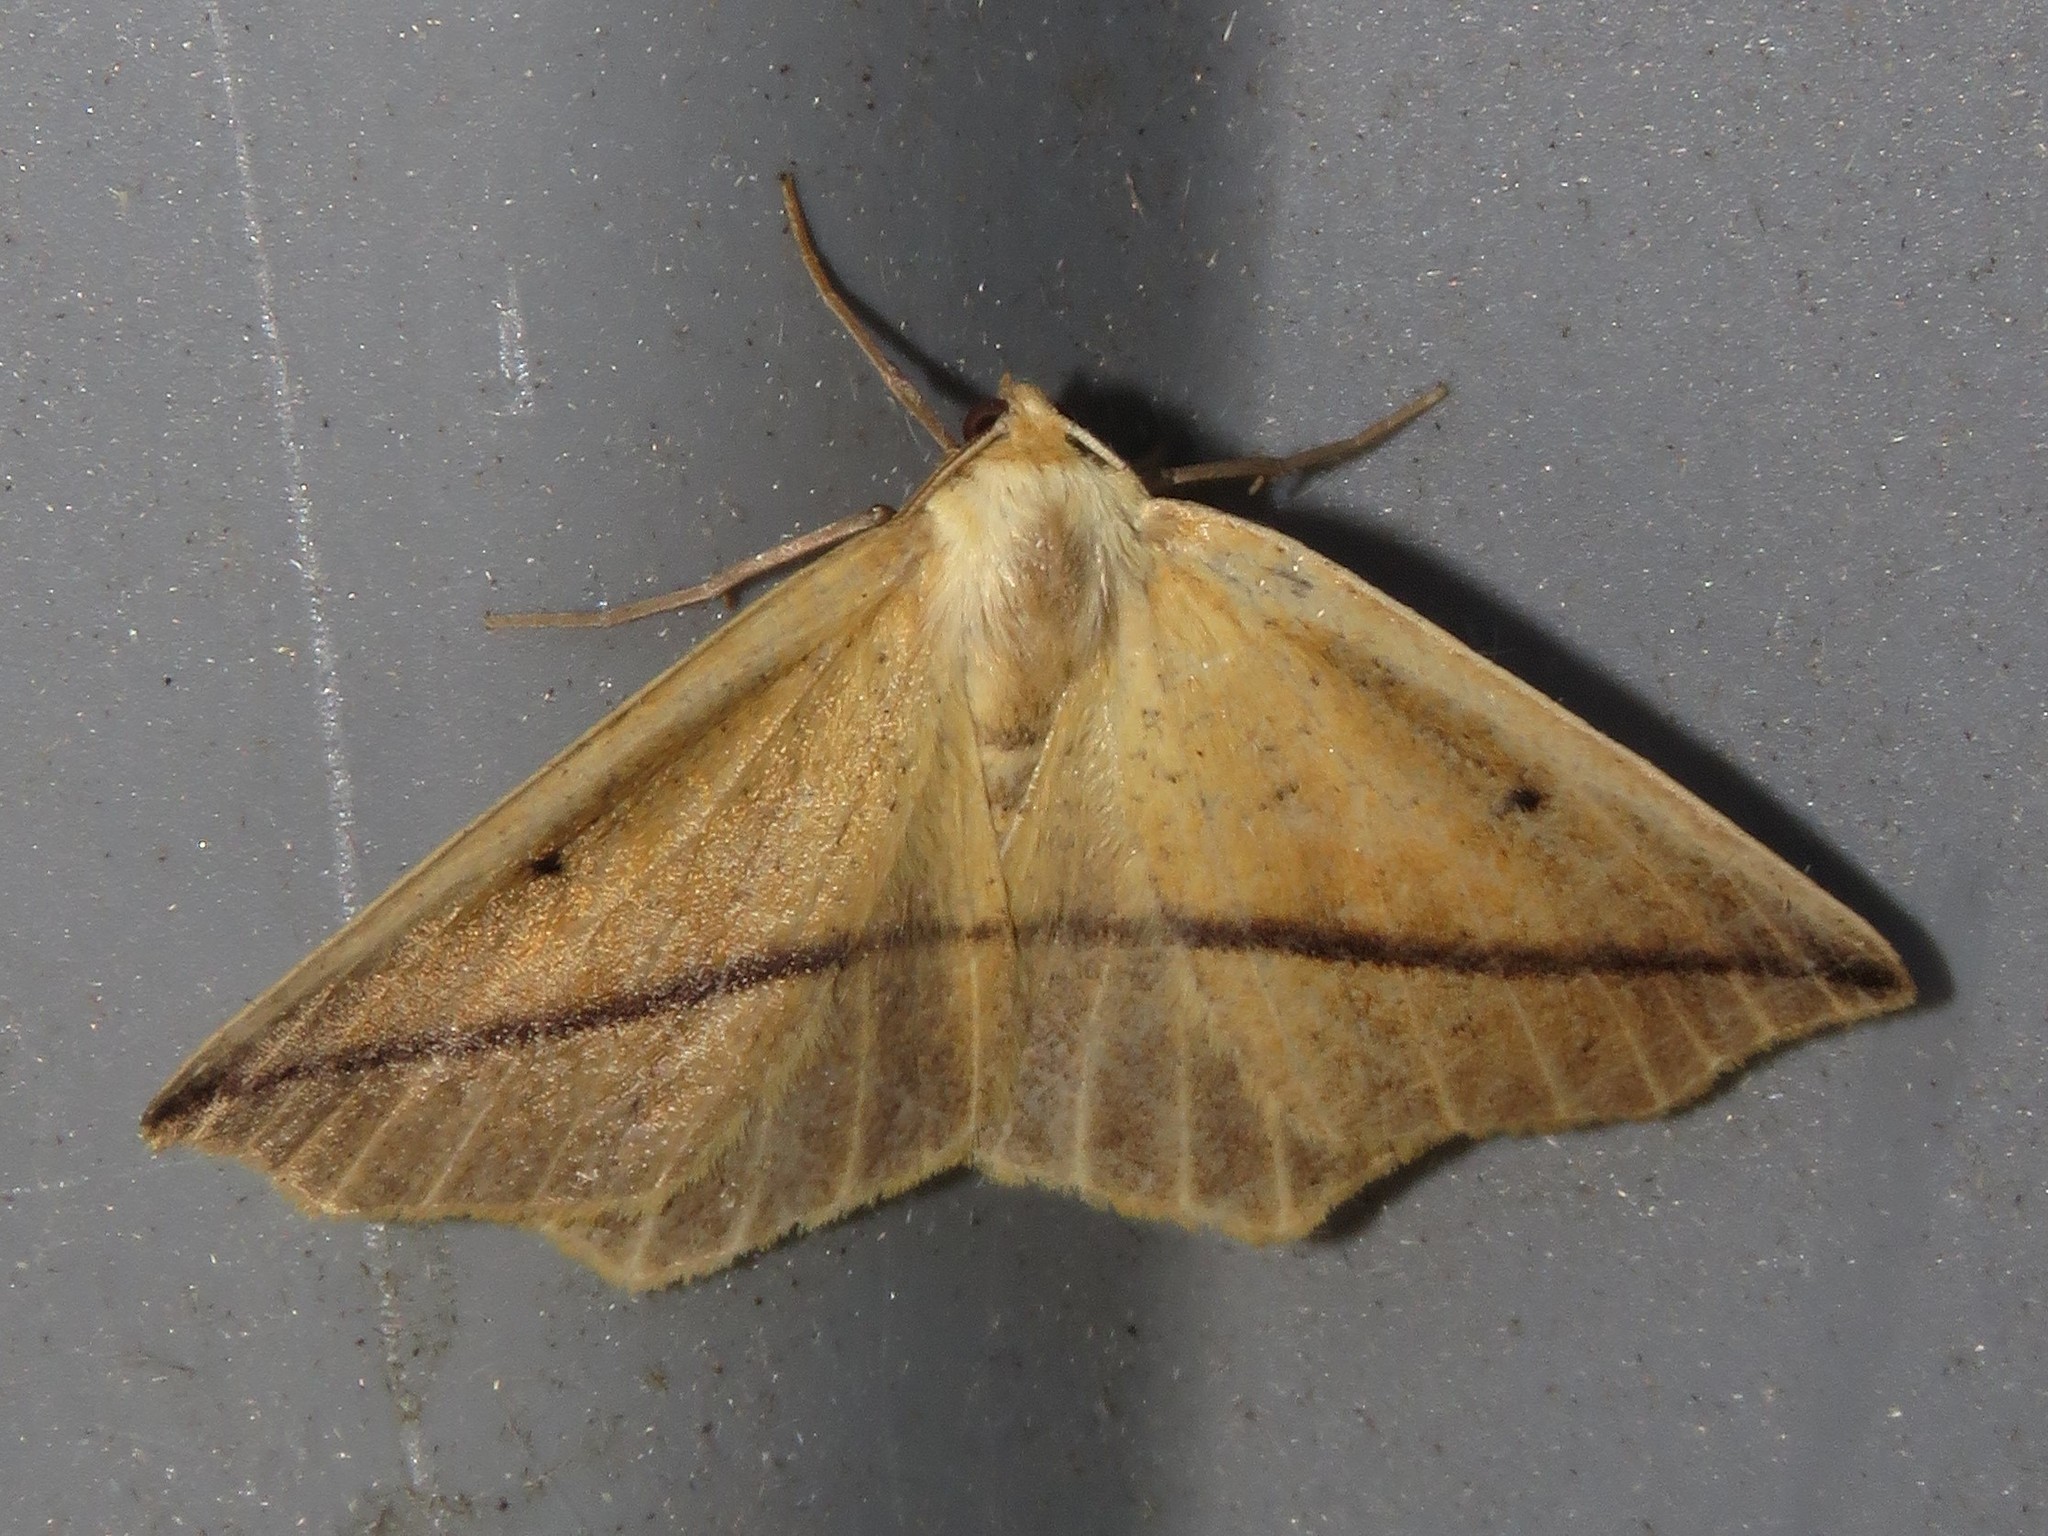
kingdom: Animalia
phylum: Arthropoda
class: Insecta
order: Lepidoptera
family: Geometridae
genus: Tetracis
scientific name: Tetracis crocallata
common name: Yellow slant-line
